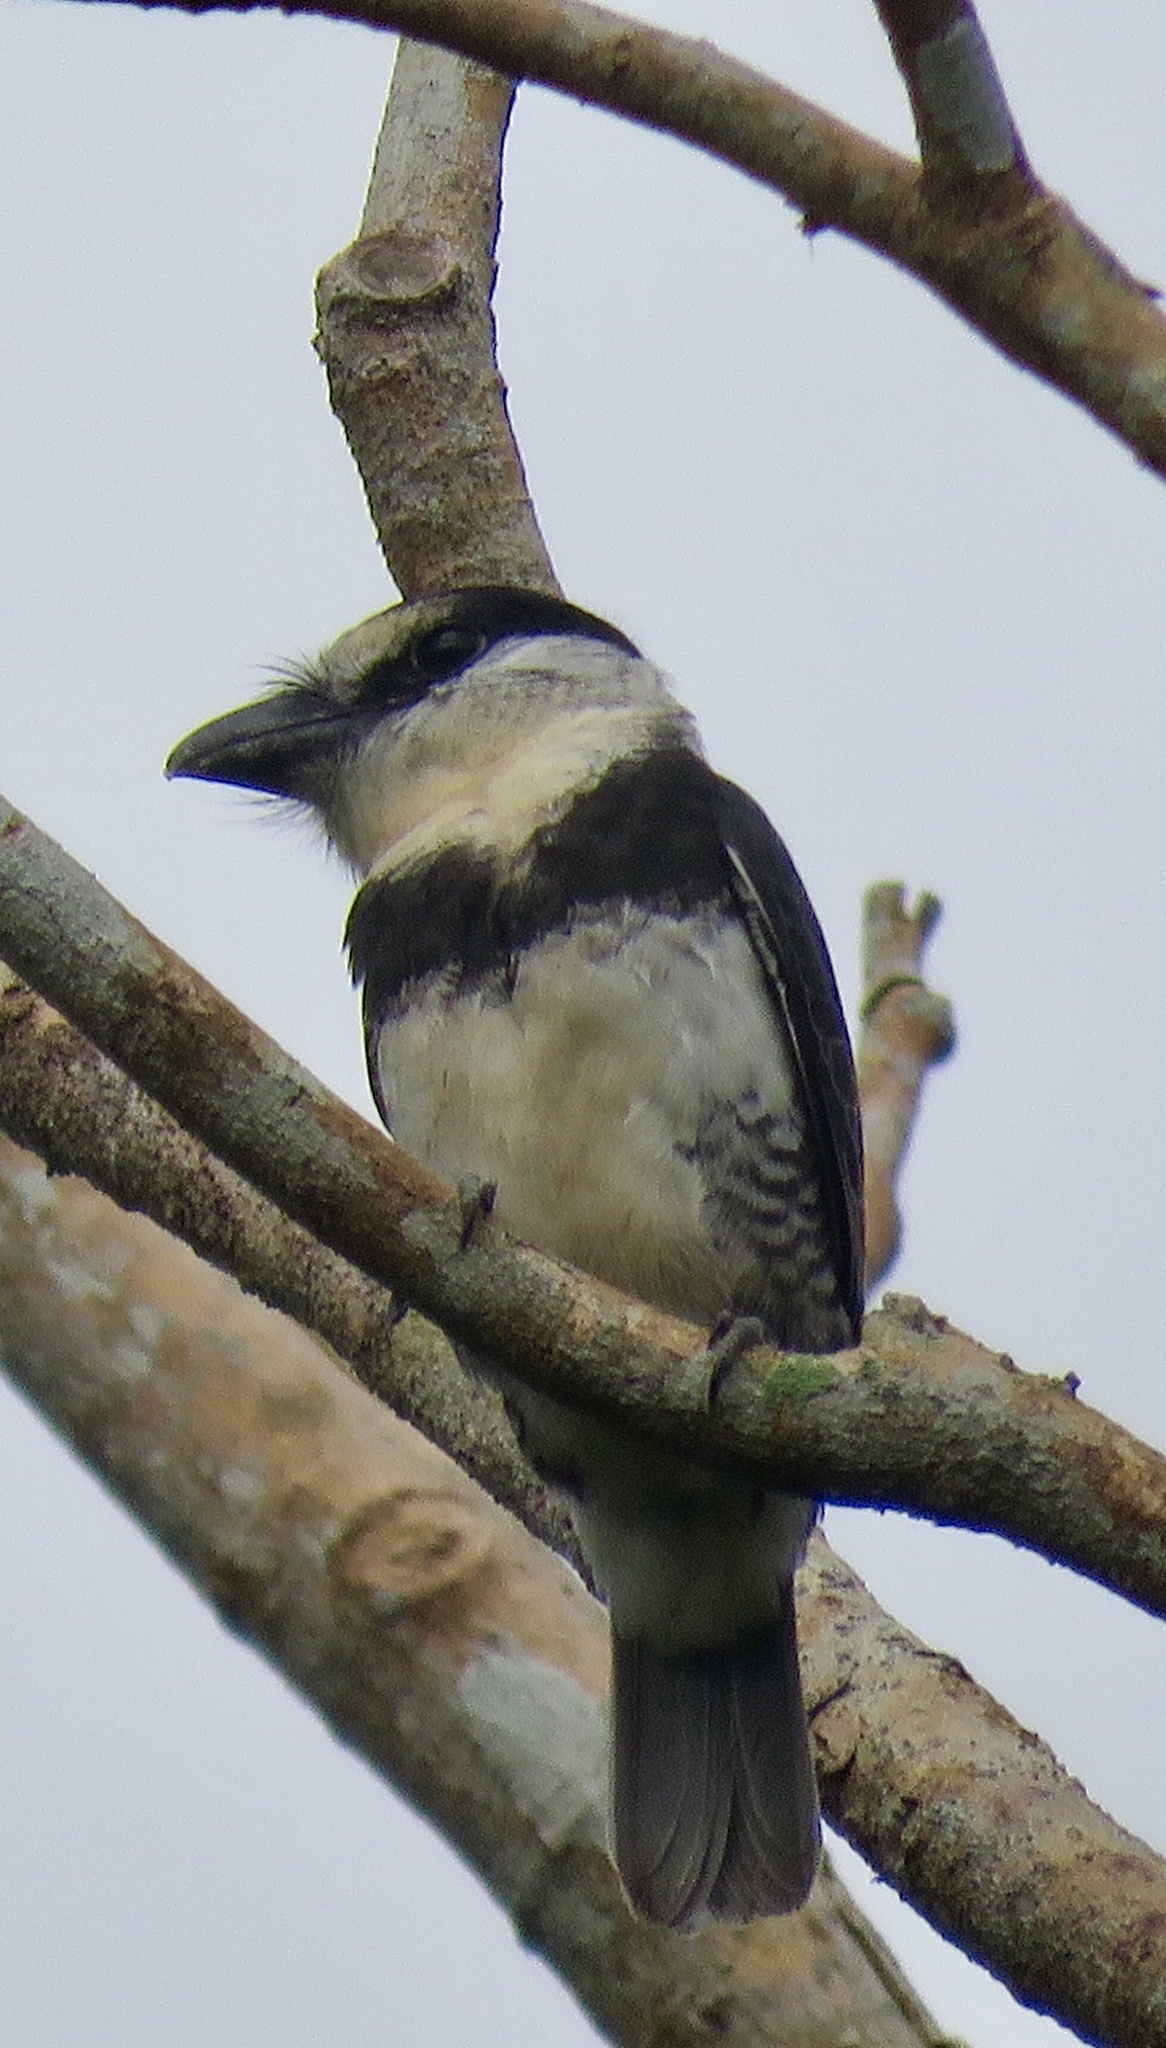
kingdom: Animalia
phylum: Chordata
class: Aves
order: Piciformes
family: Bucconidae
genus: Notharchus
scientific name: Notharchus hyperrhynchus
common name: White-necked puffbird
